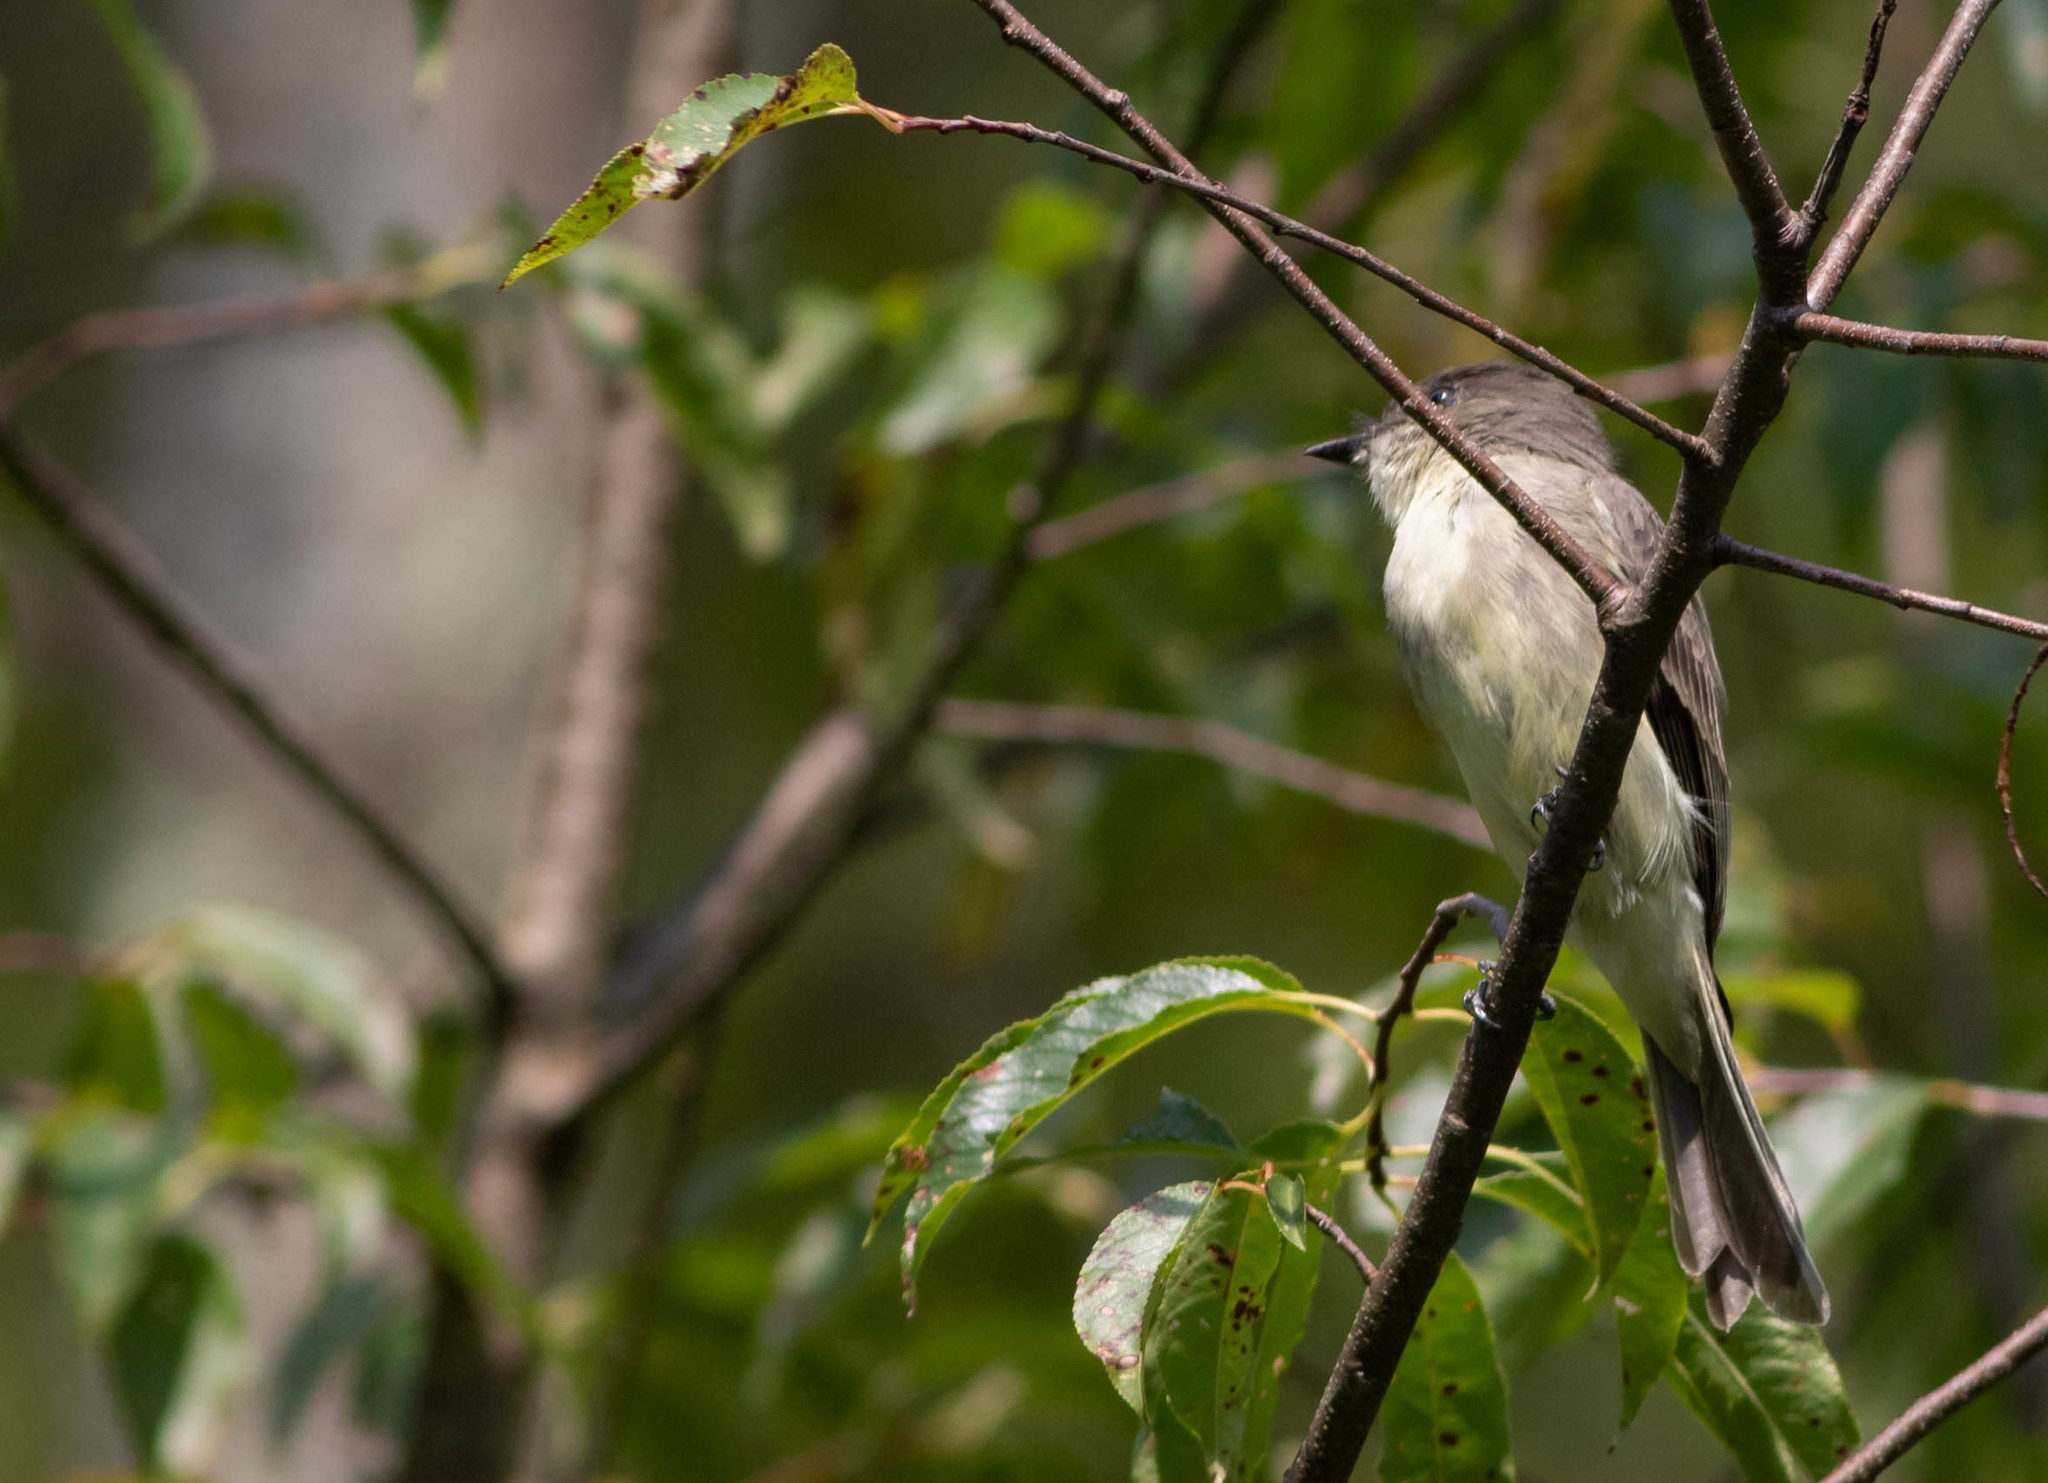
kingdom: Animalia
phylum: Chordata
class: Aves
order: Passeriformes
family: Tyrannidae
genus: Sayornis
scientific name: Sayornis phoebe
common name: Eastern phoebe
